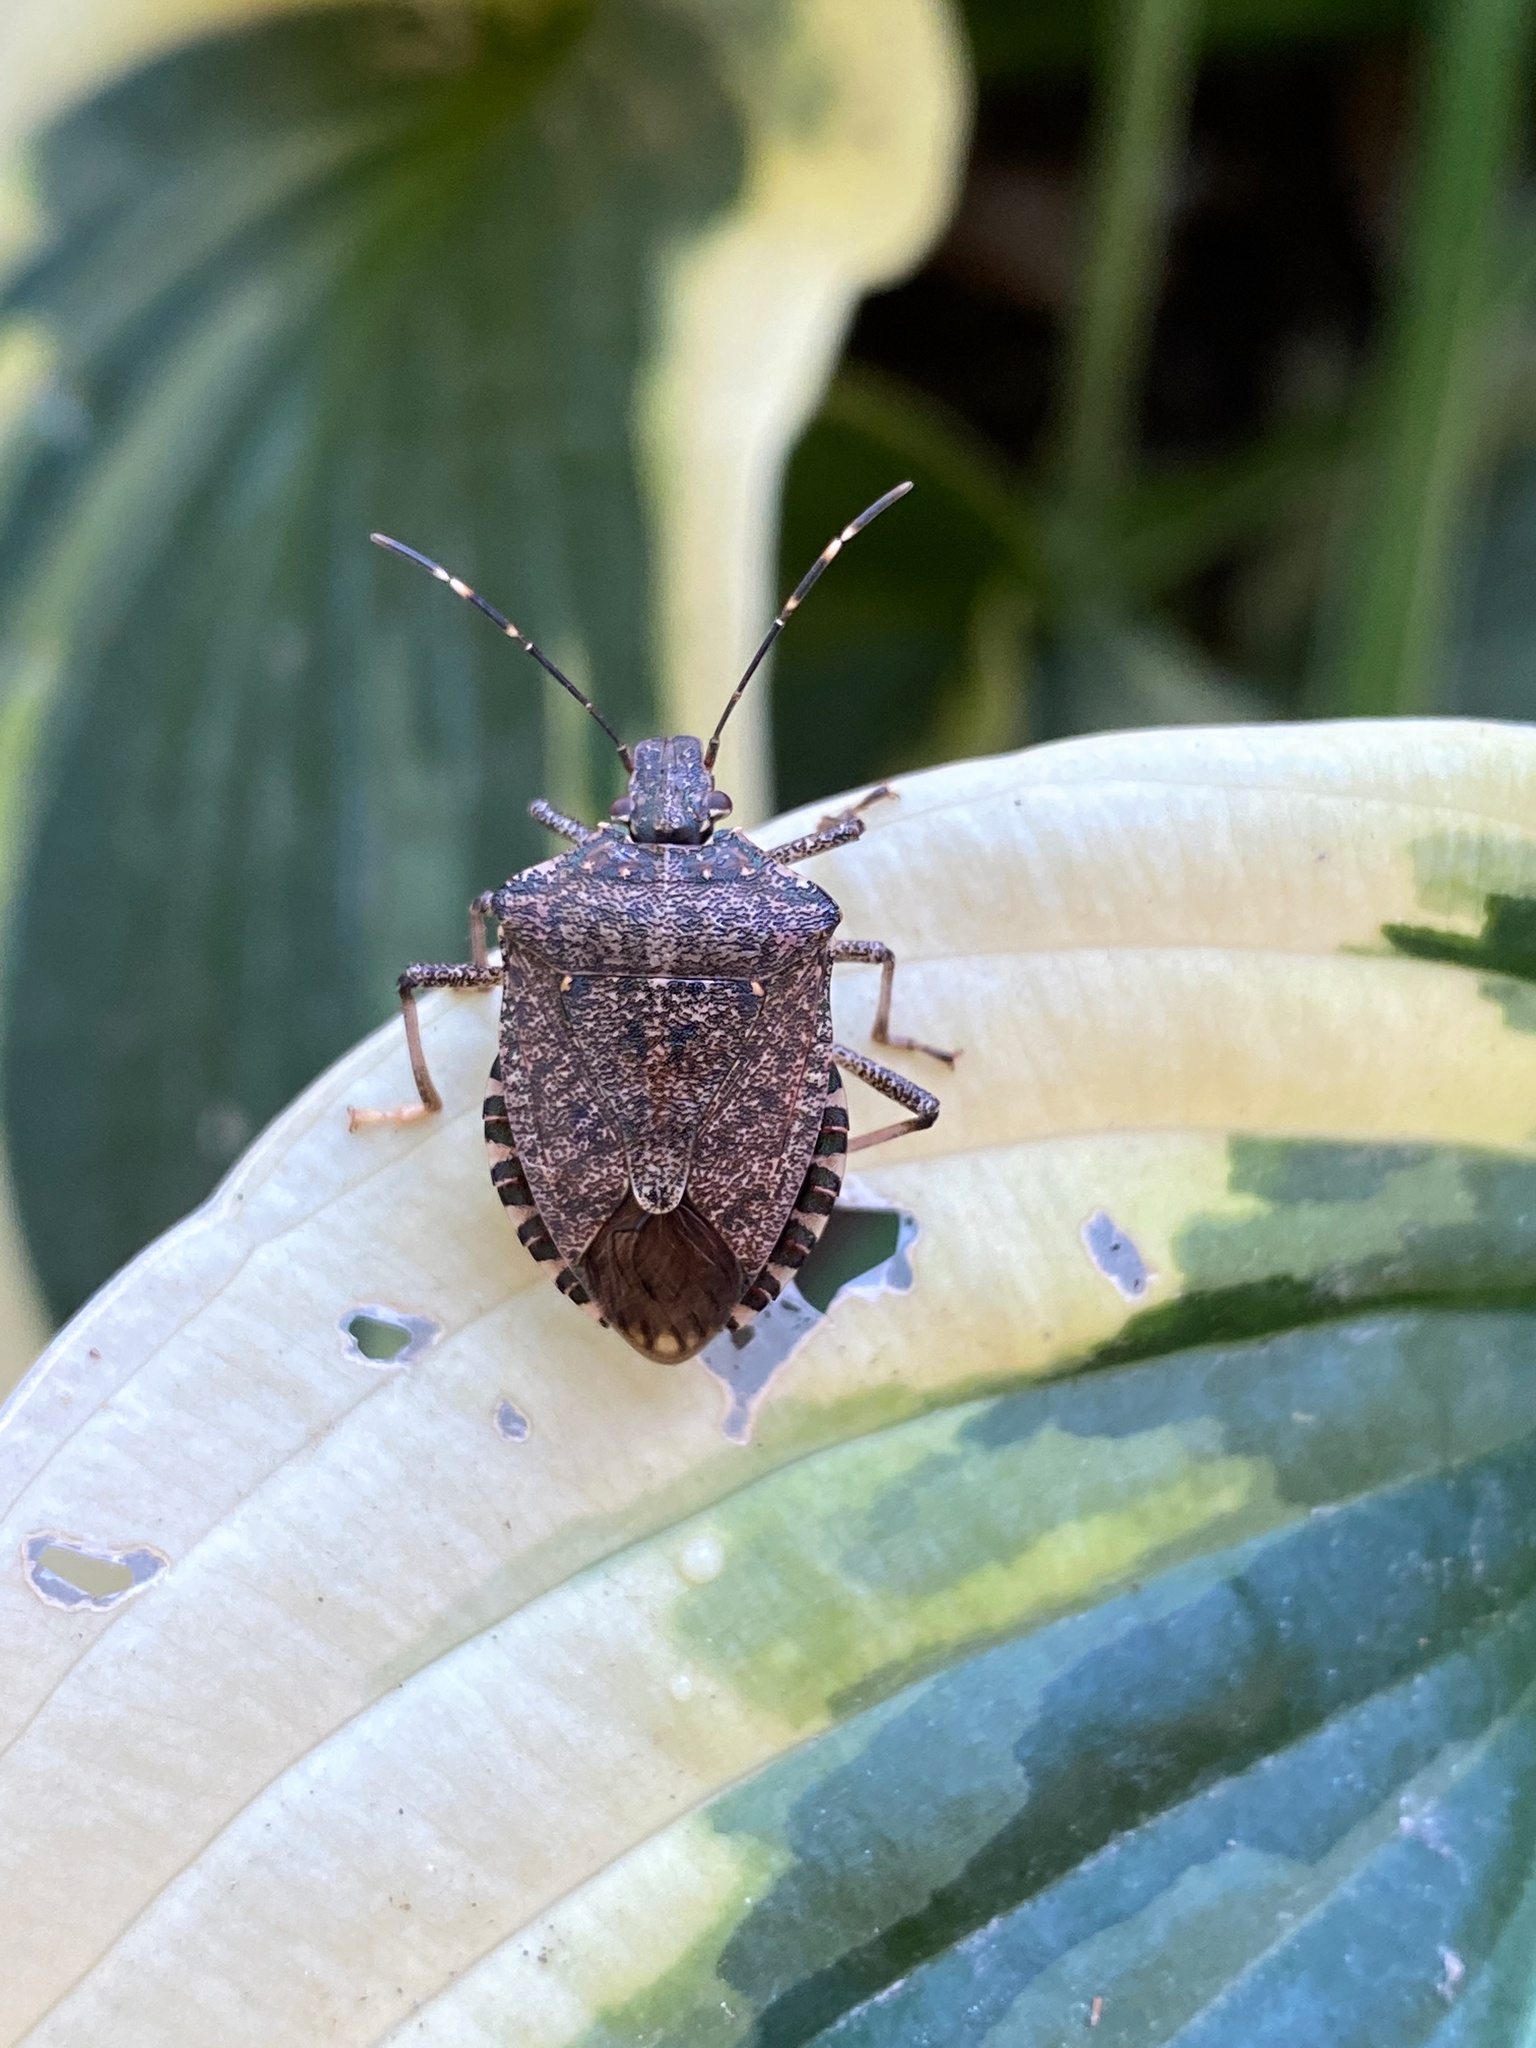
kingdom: Animalia
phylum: Arthropoda
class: Insecta
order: Hemiptera
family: Pentatomidae
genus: Halyomorpha
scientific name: Halyomorpha halys
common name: Brown marmorated stink bug
